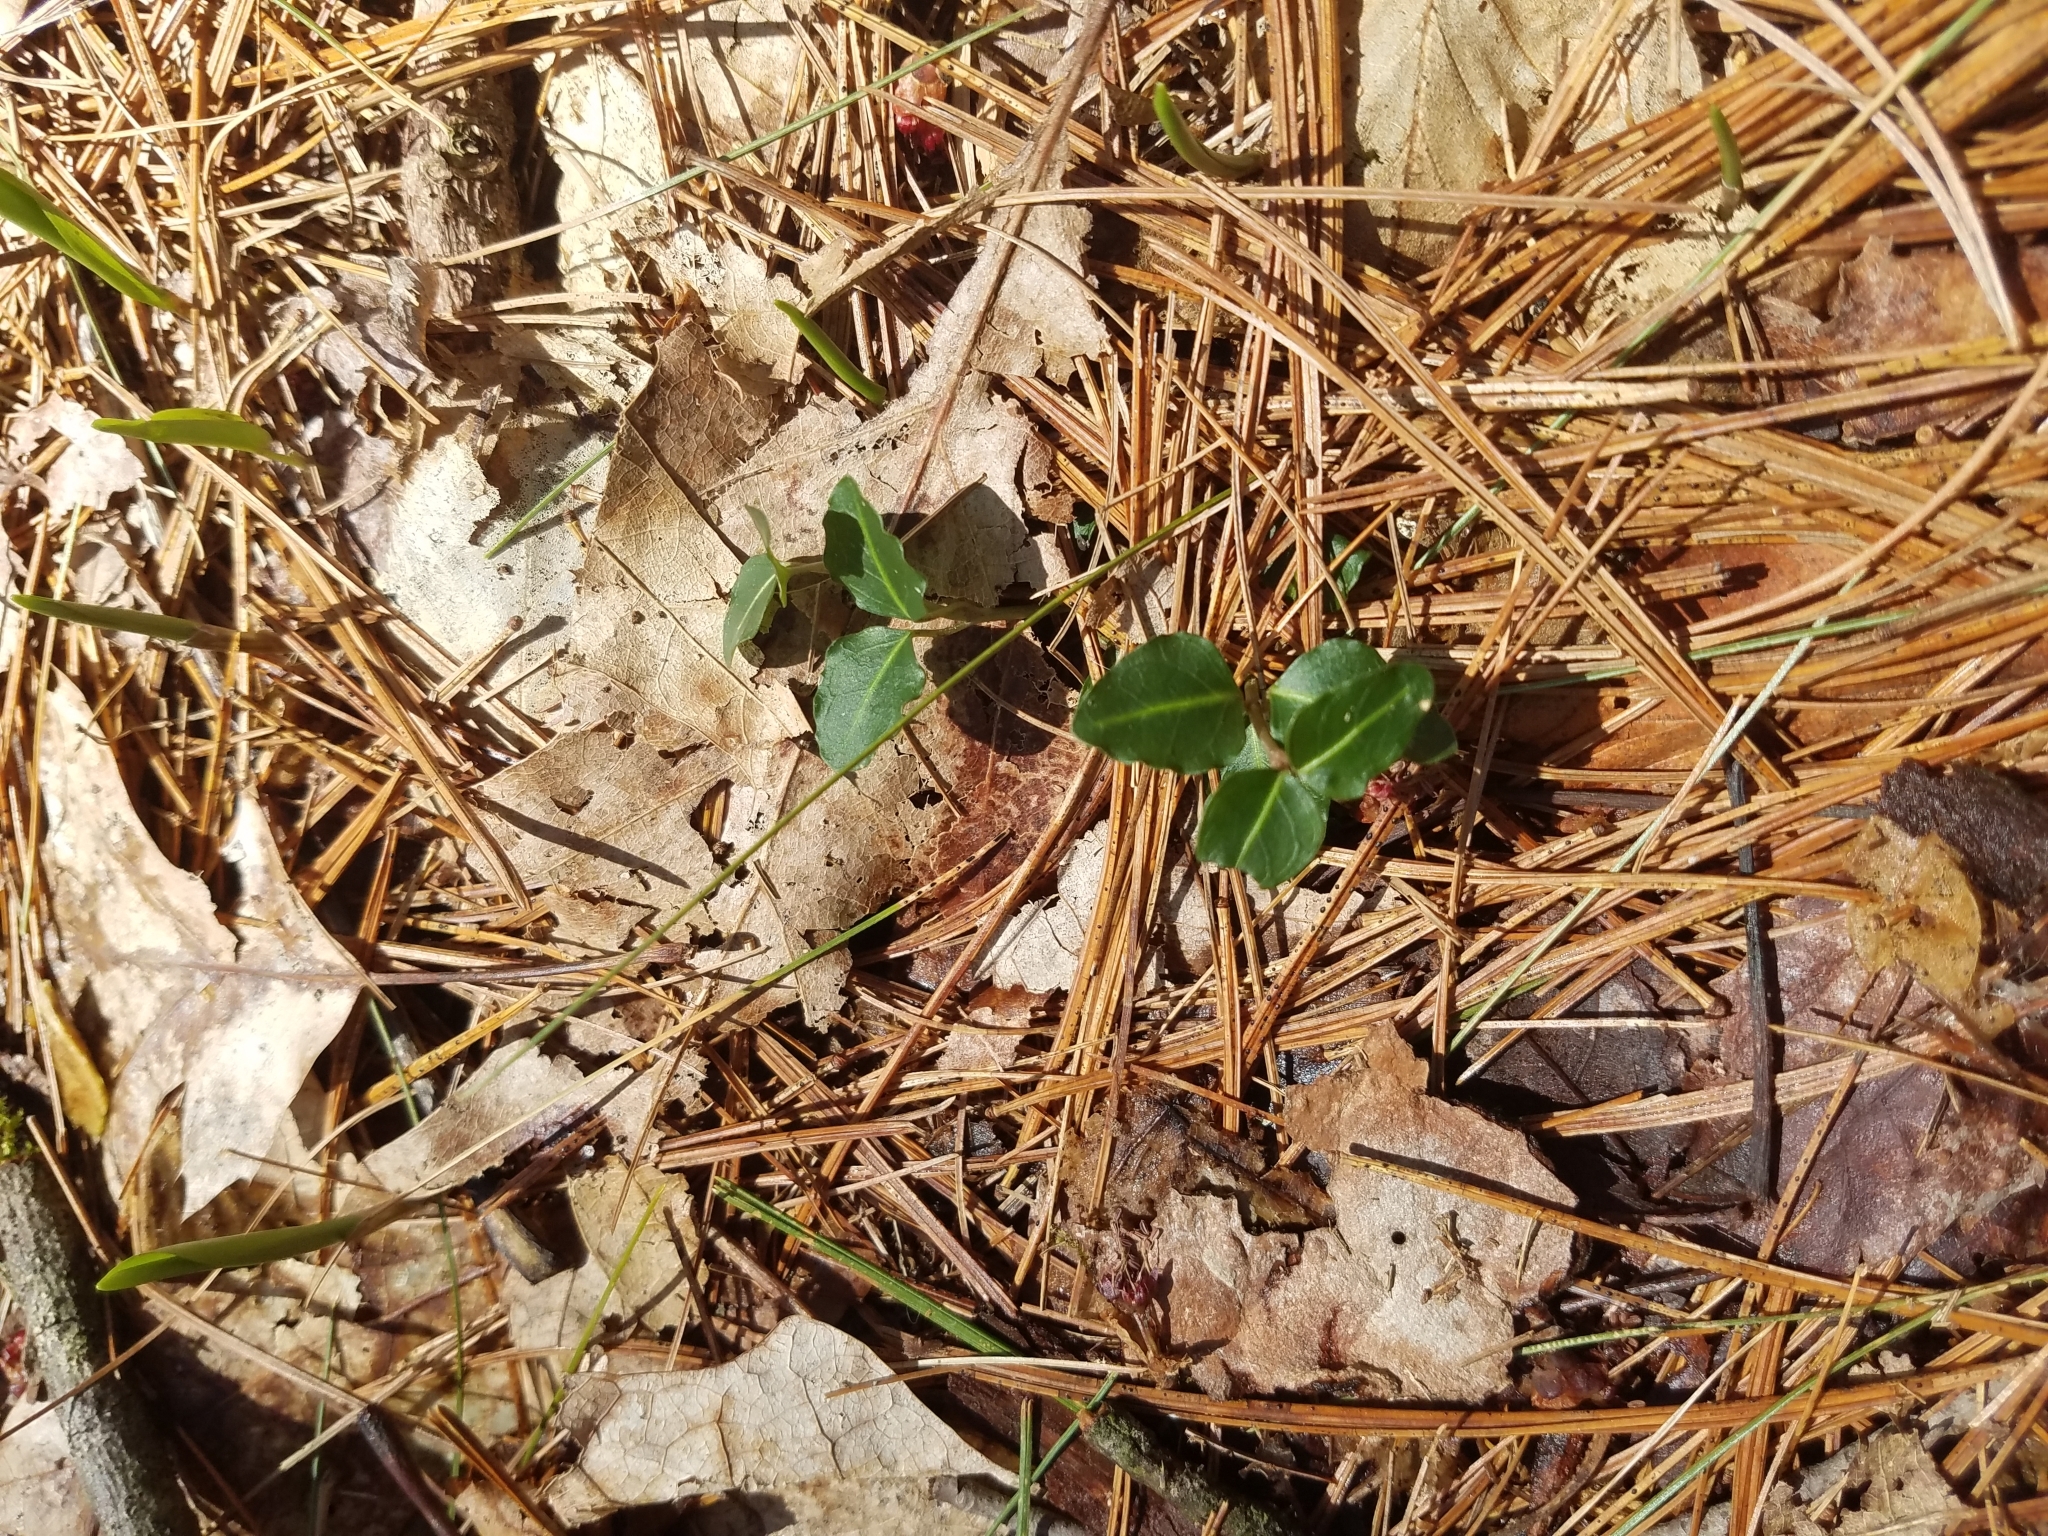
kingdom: Plantae
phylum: Tracheophyta
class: Magnoliopsida
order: Gentianales
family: Rubiaceae
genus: Mitchella
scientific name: Mitchella repens
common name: Partridge-berry
